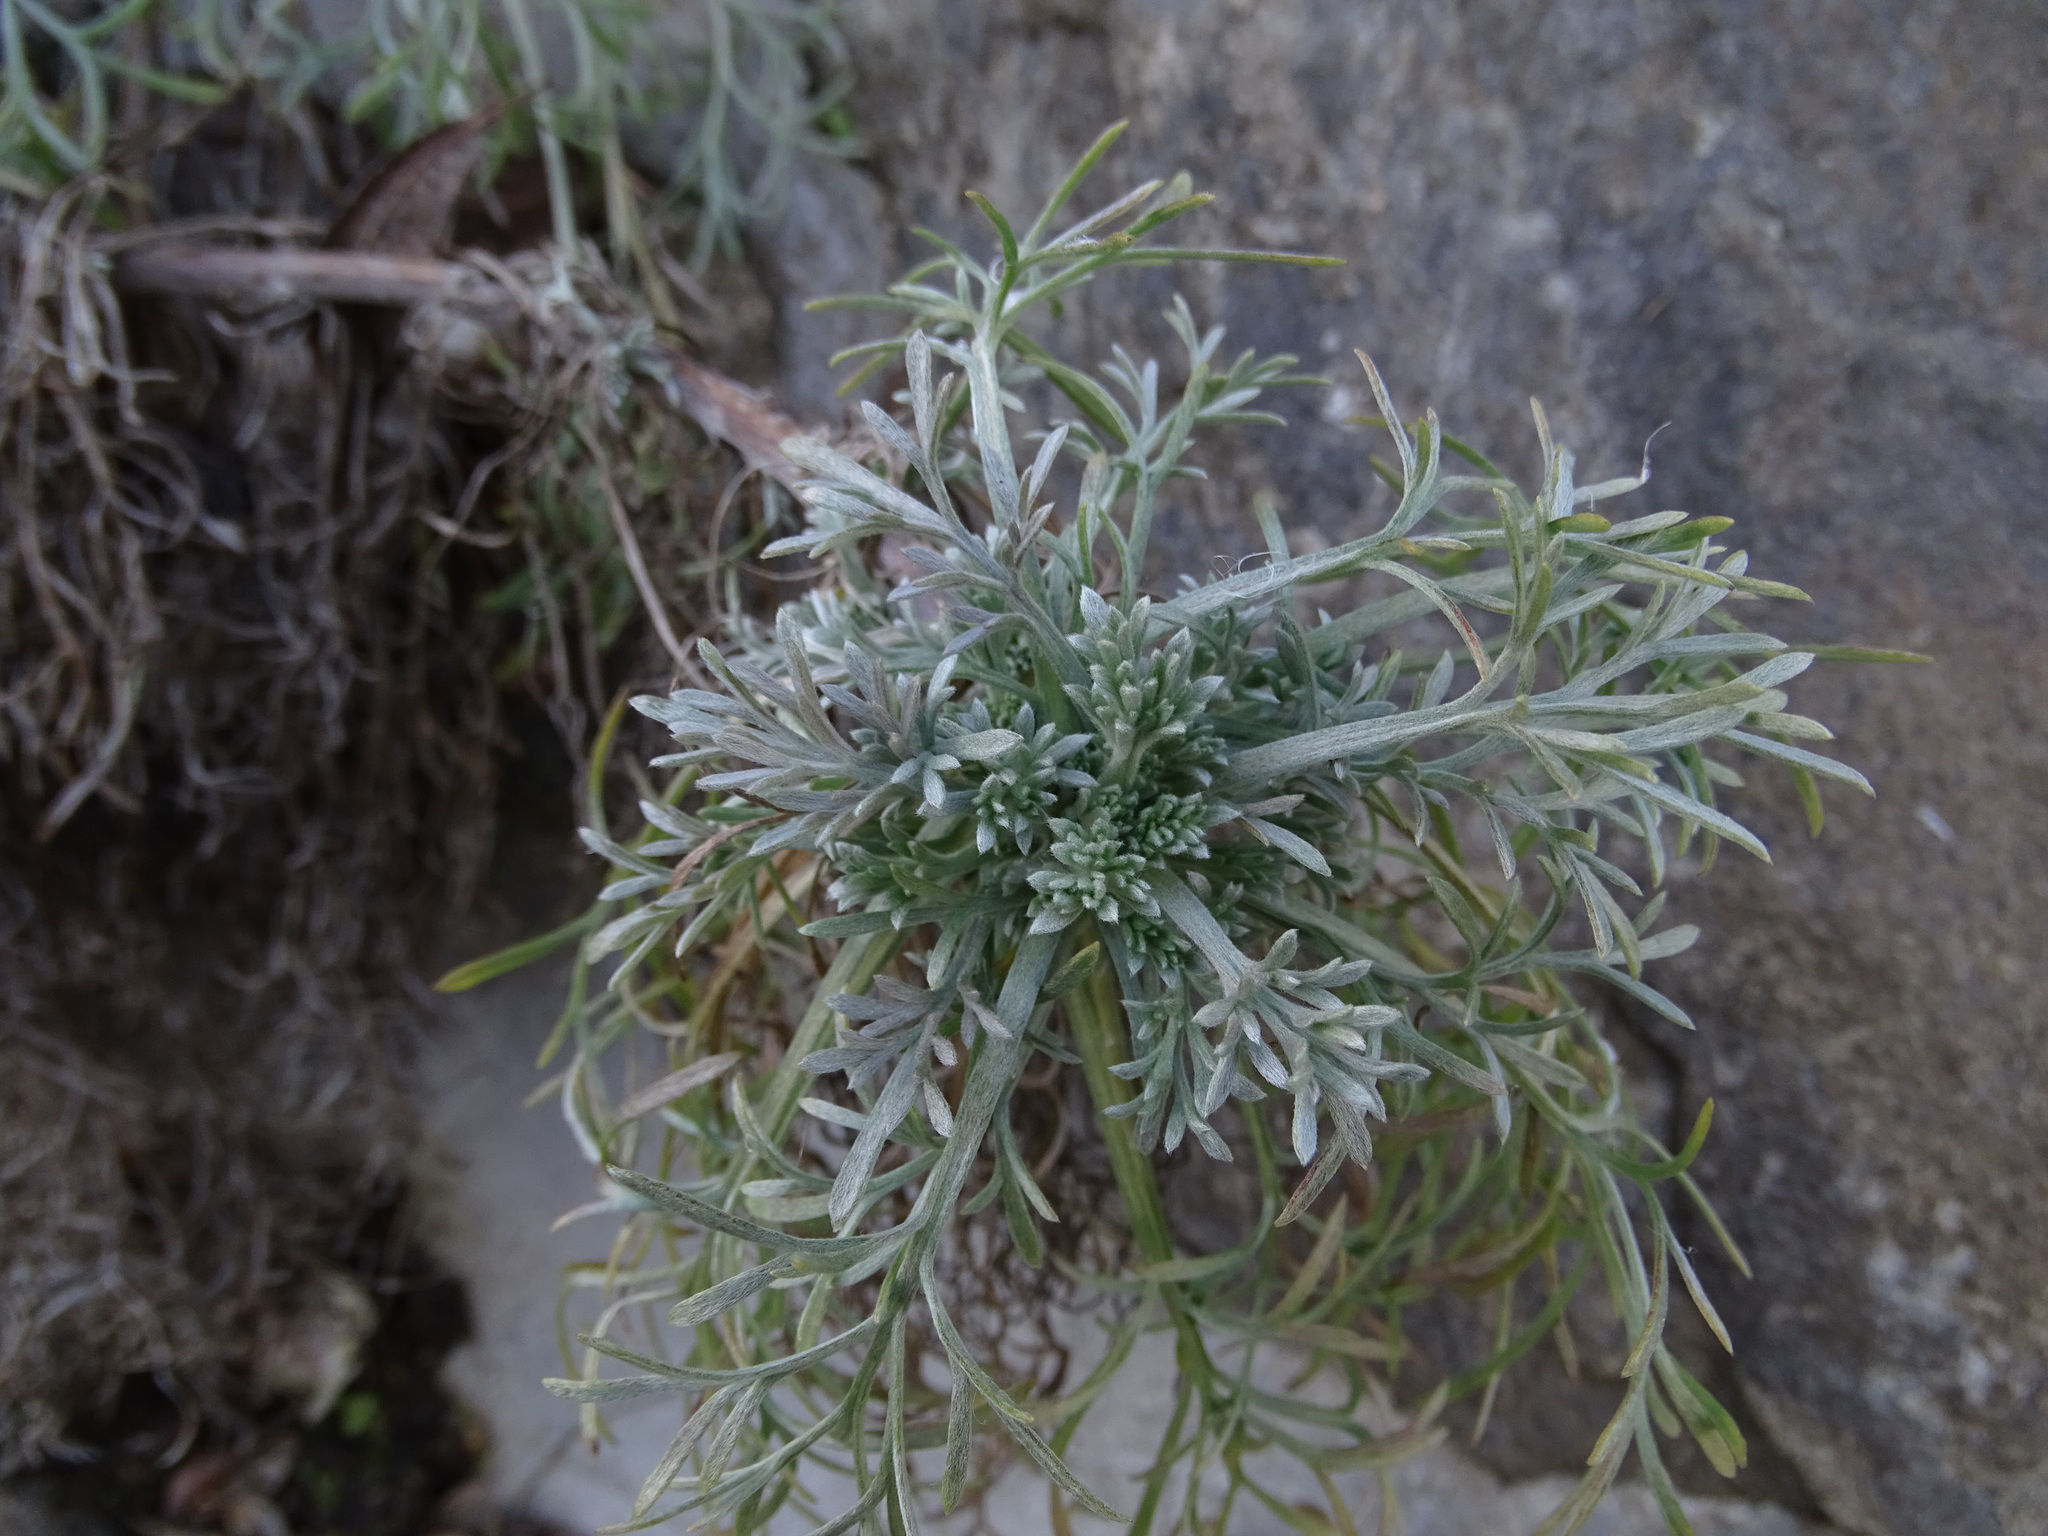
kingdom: Plantae
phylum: Tracheophyta
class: Magnoliopsida
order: Asterales
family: Asteraceae
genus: Artemisia
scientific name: Artemisia campestris
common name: Field wormwood
